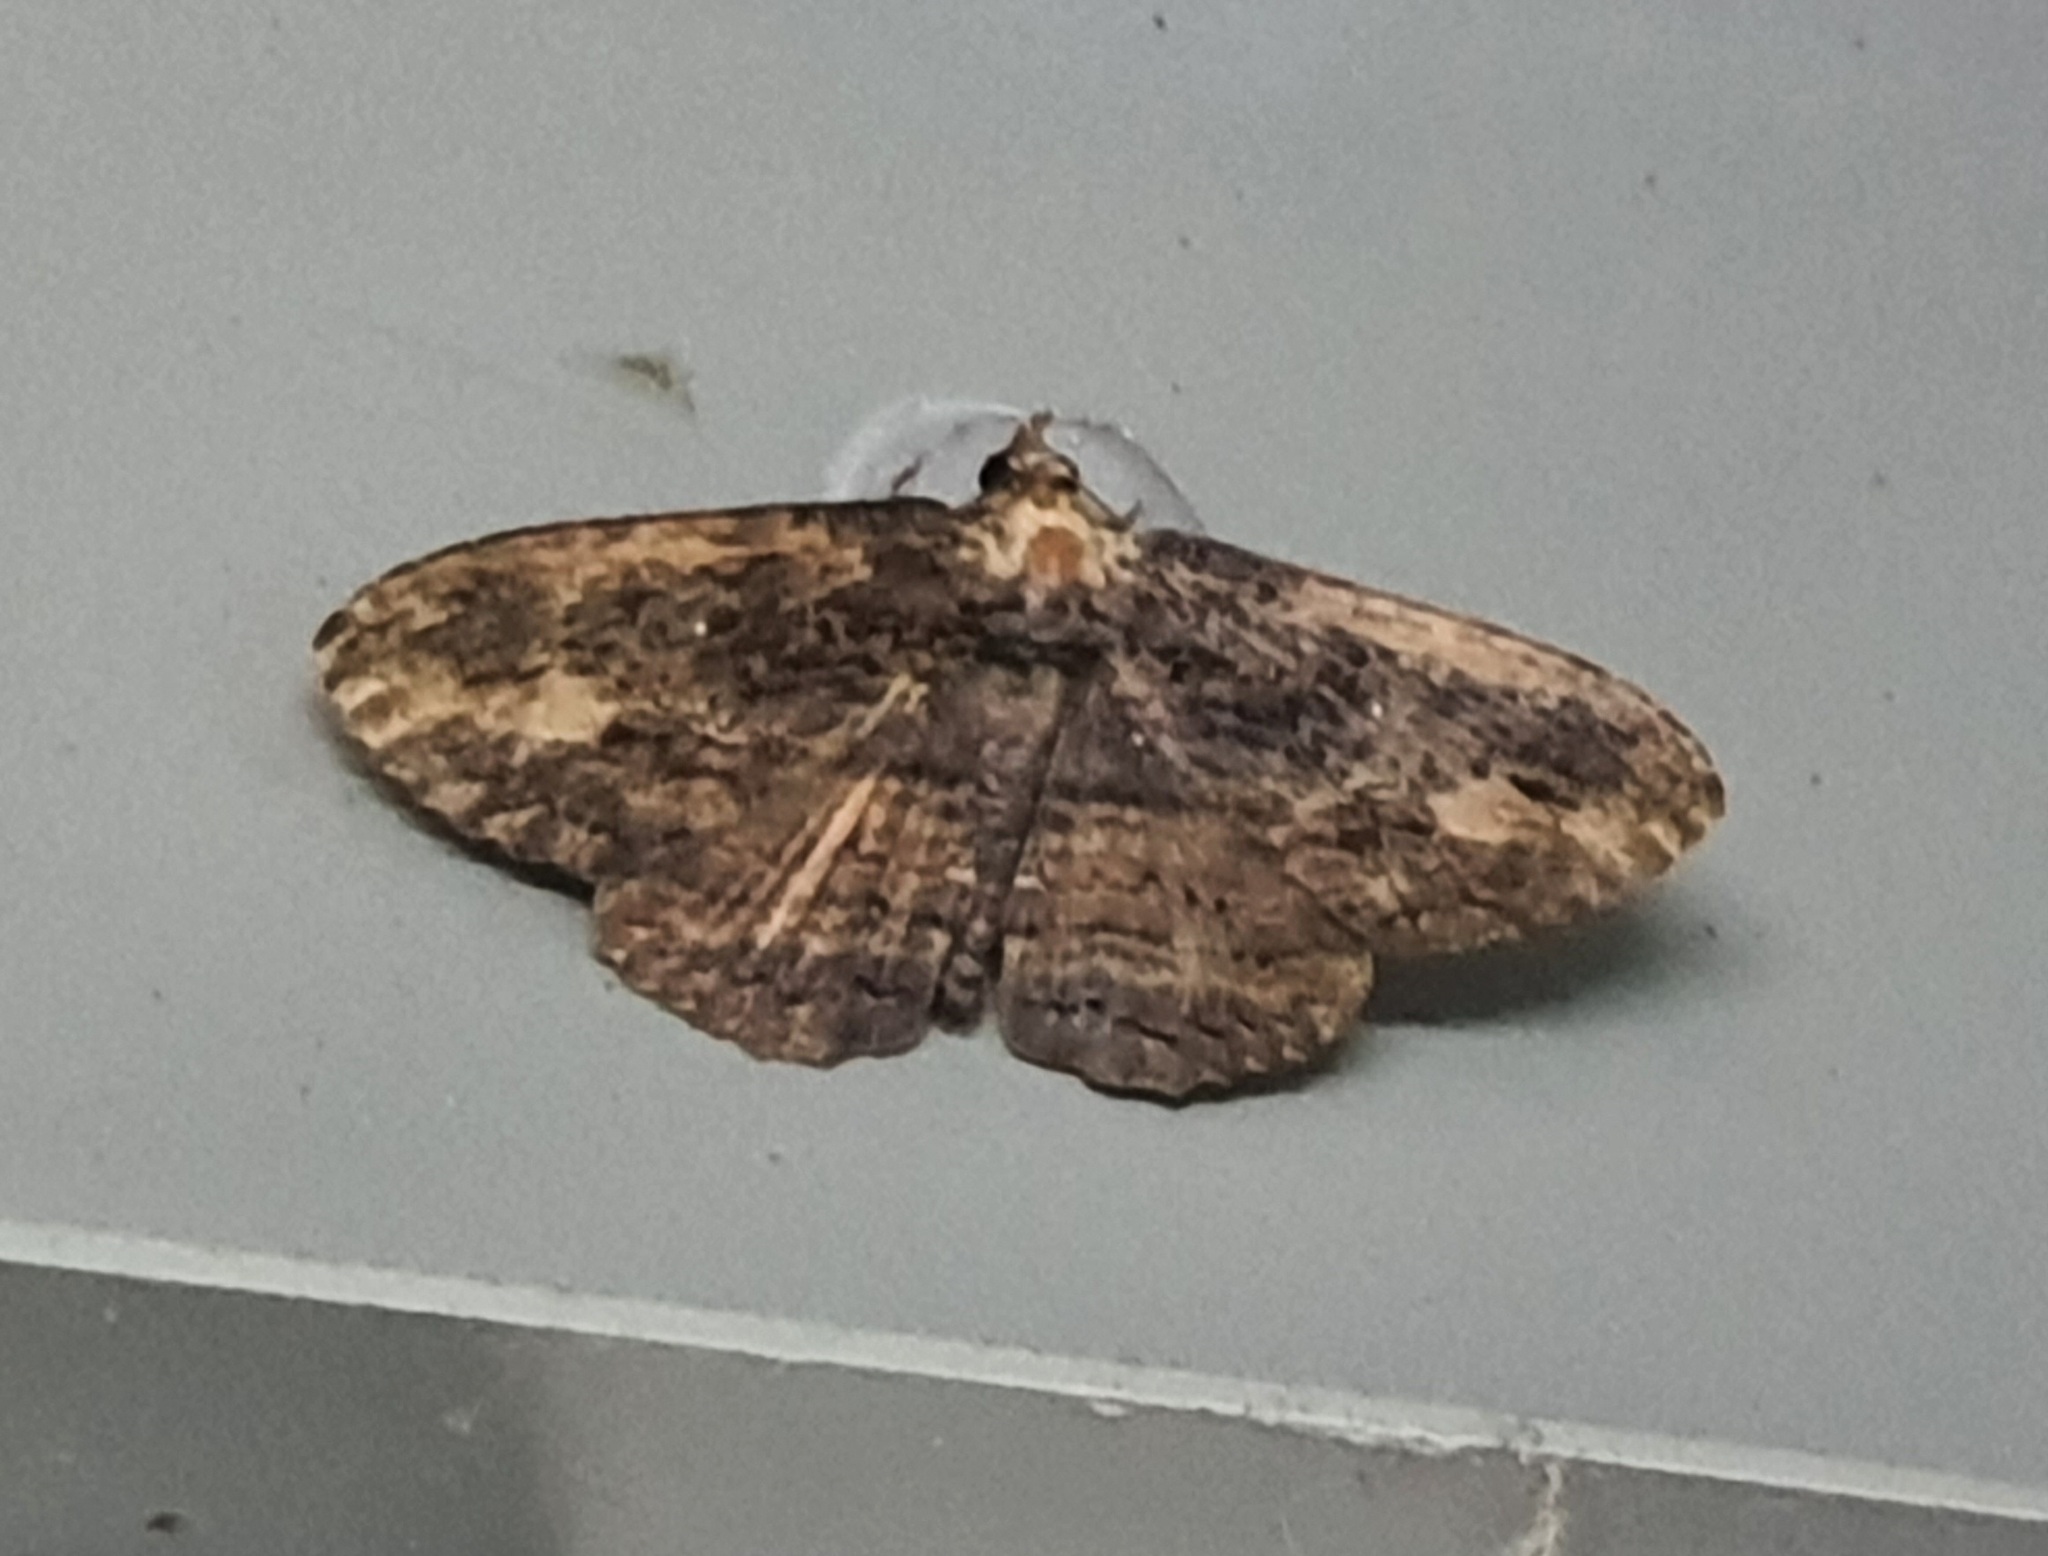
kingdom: Animalia
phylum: Arthropoda
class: Insecta
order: Lepidoptera
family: Erebidae
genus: Anisoneura
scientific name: Anisoneura salebrosa
